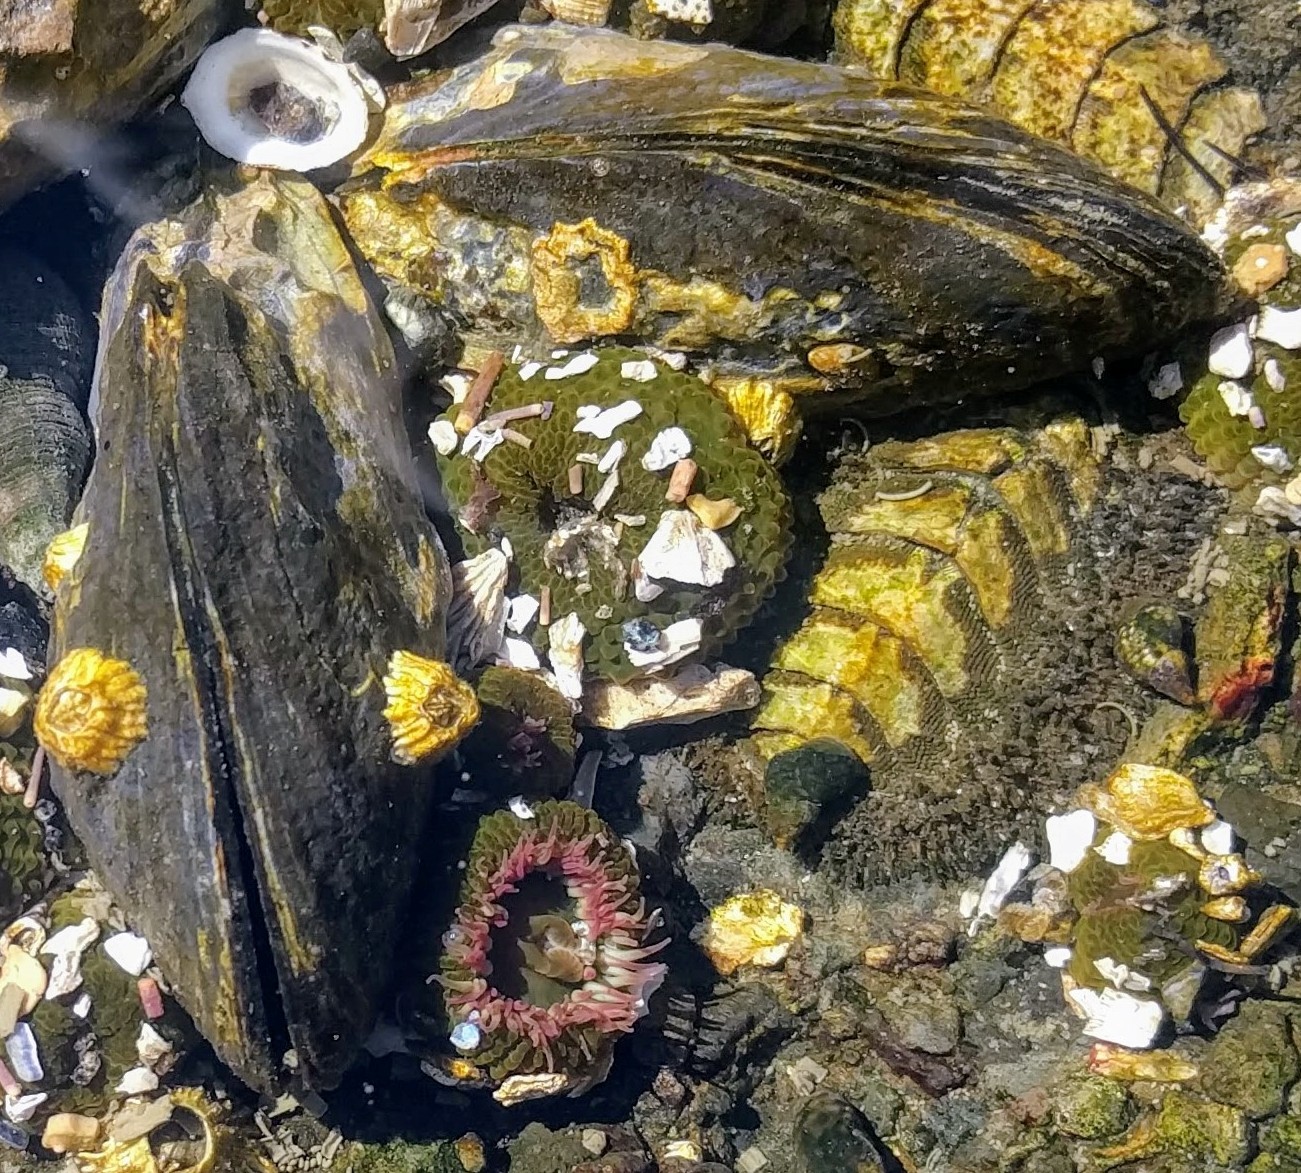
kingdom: Animalia
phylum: Mollusca
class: Bivalvia
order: Mytilida
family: Mytilidae
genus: Mytilus
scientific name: Mytilus californianus
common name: California mussel
